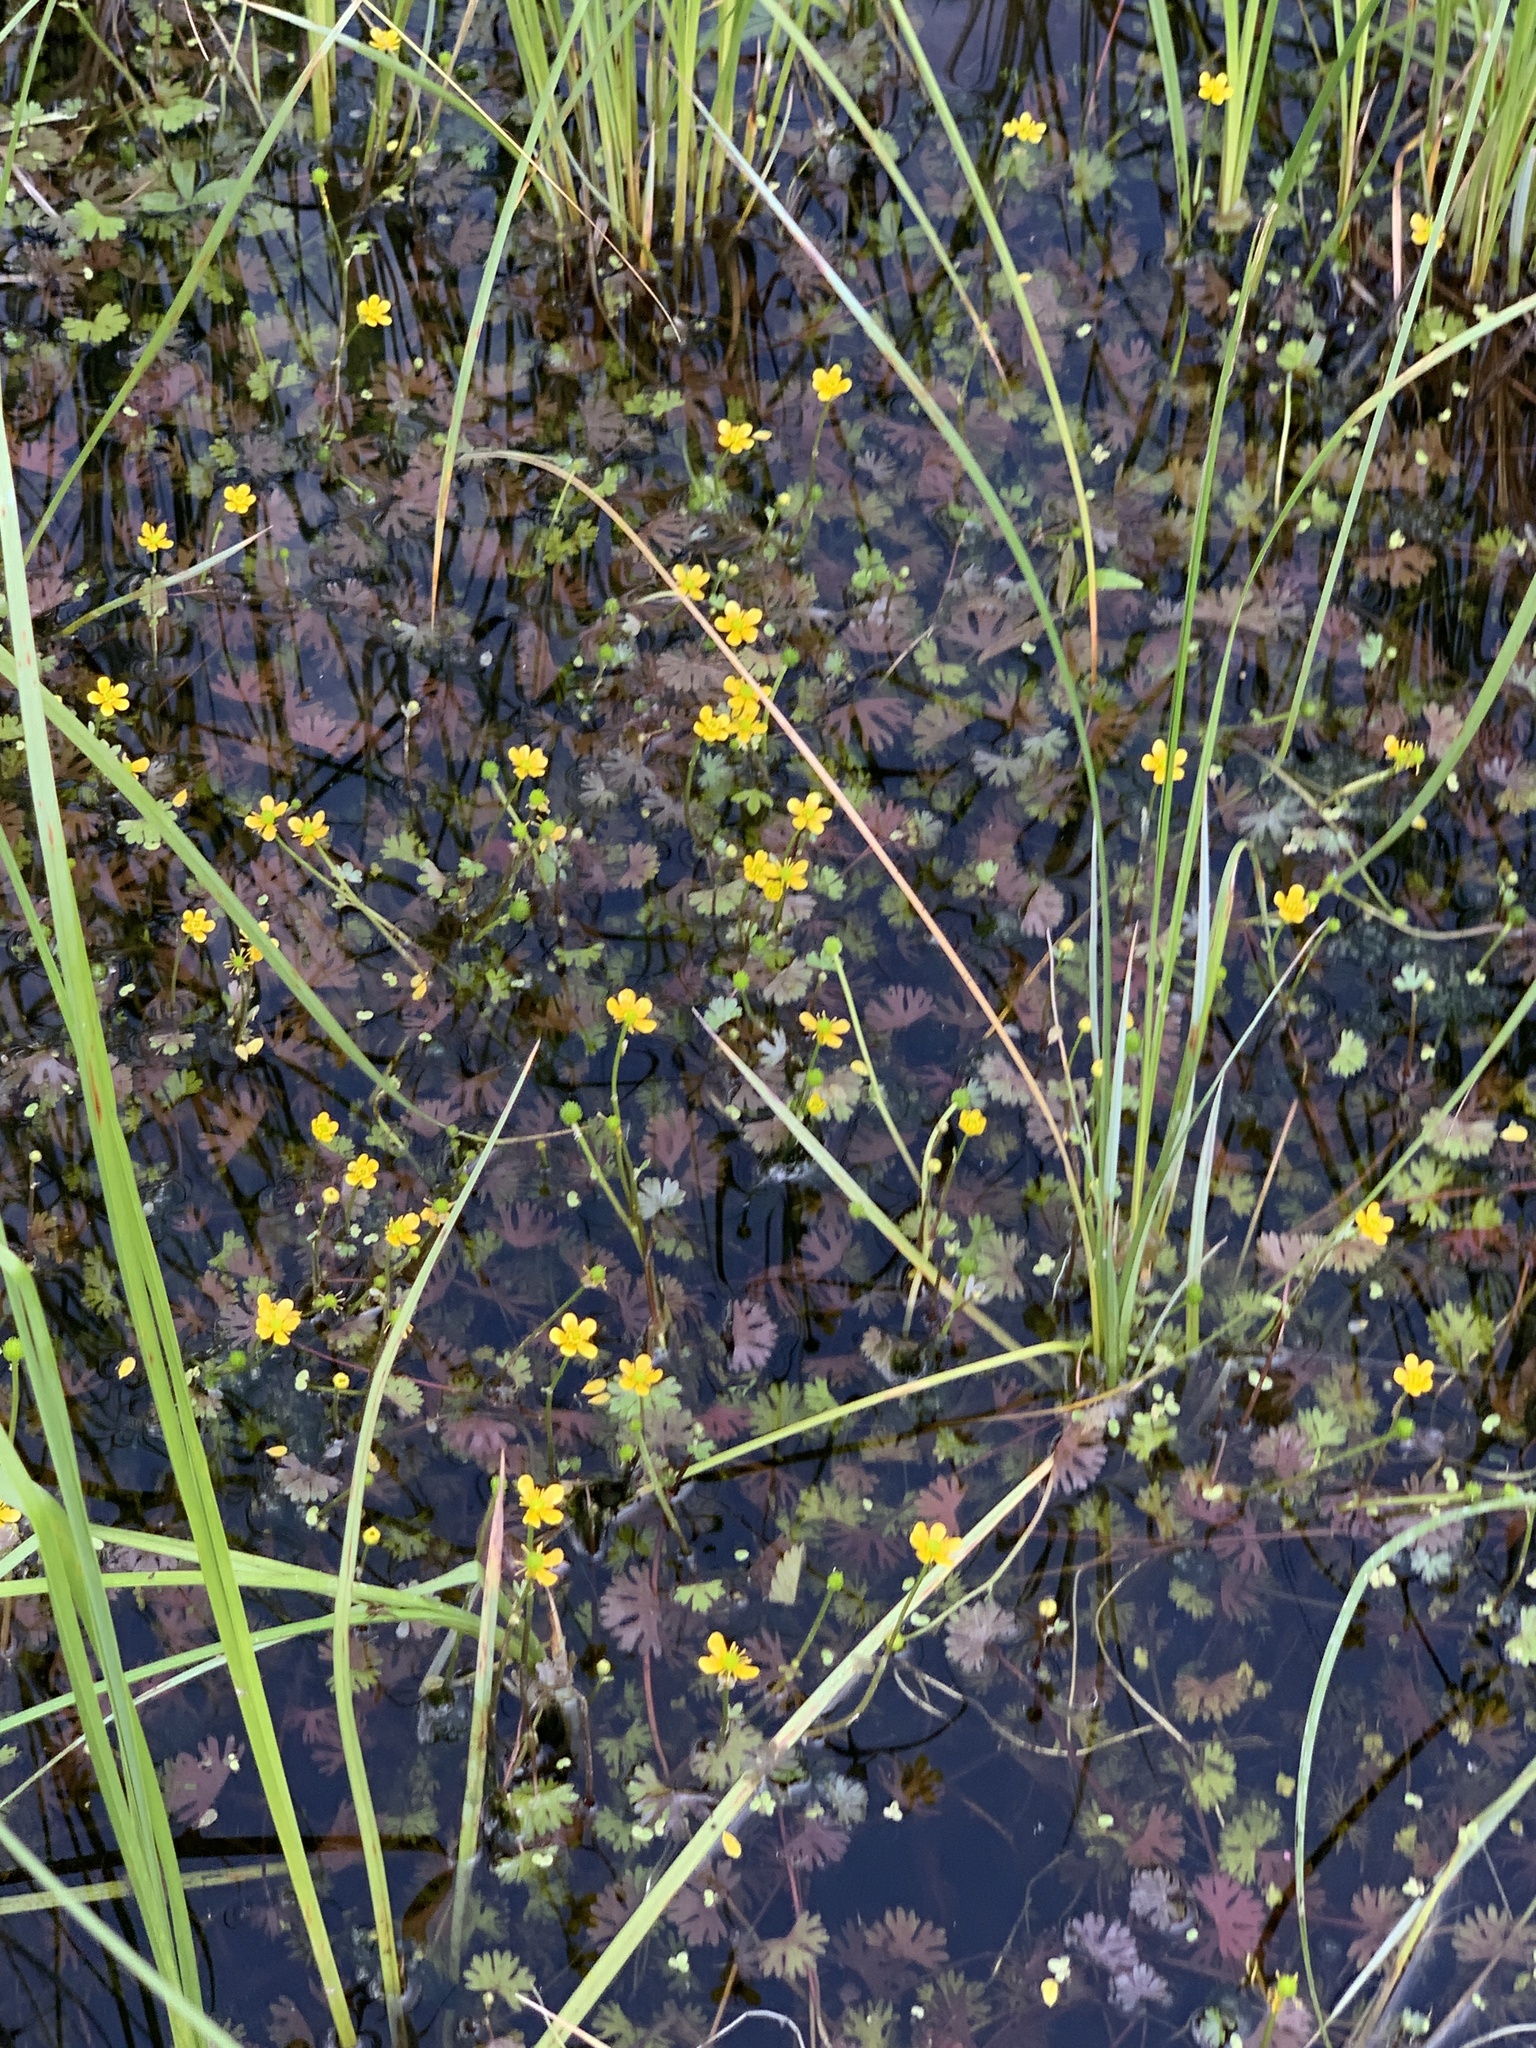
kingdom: Plantae
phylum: Tracheophyta
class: Magnoliopsida
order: Ranunculales
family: Ranunculaceae
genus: Ranunculus
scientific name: Ranunculus gmelinii
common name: Gmelin's buttercup
